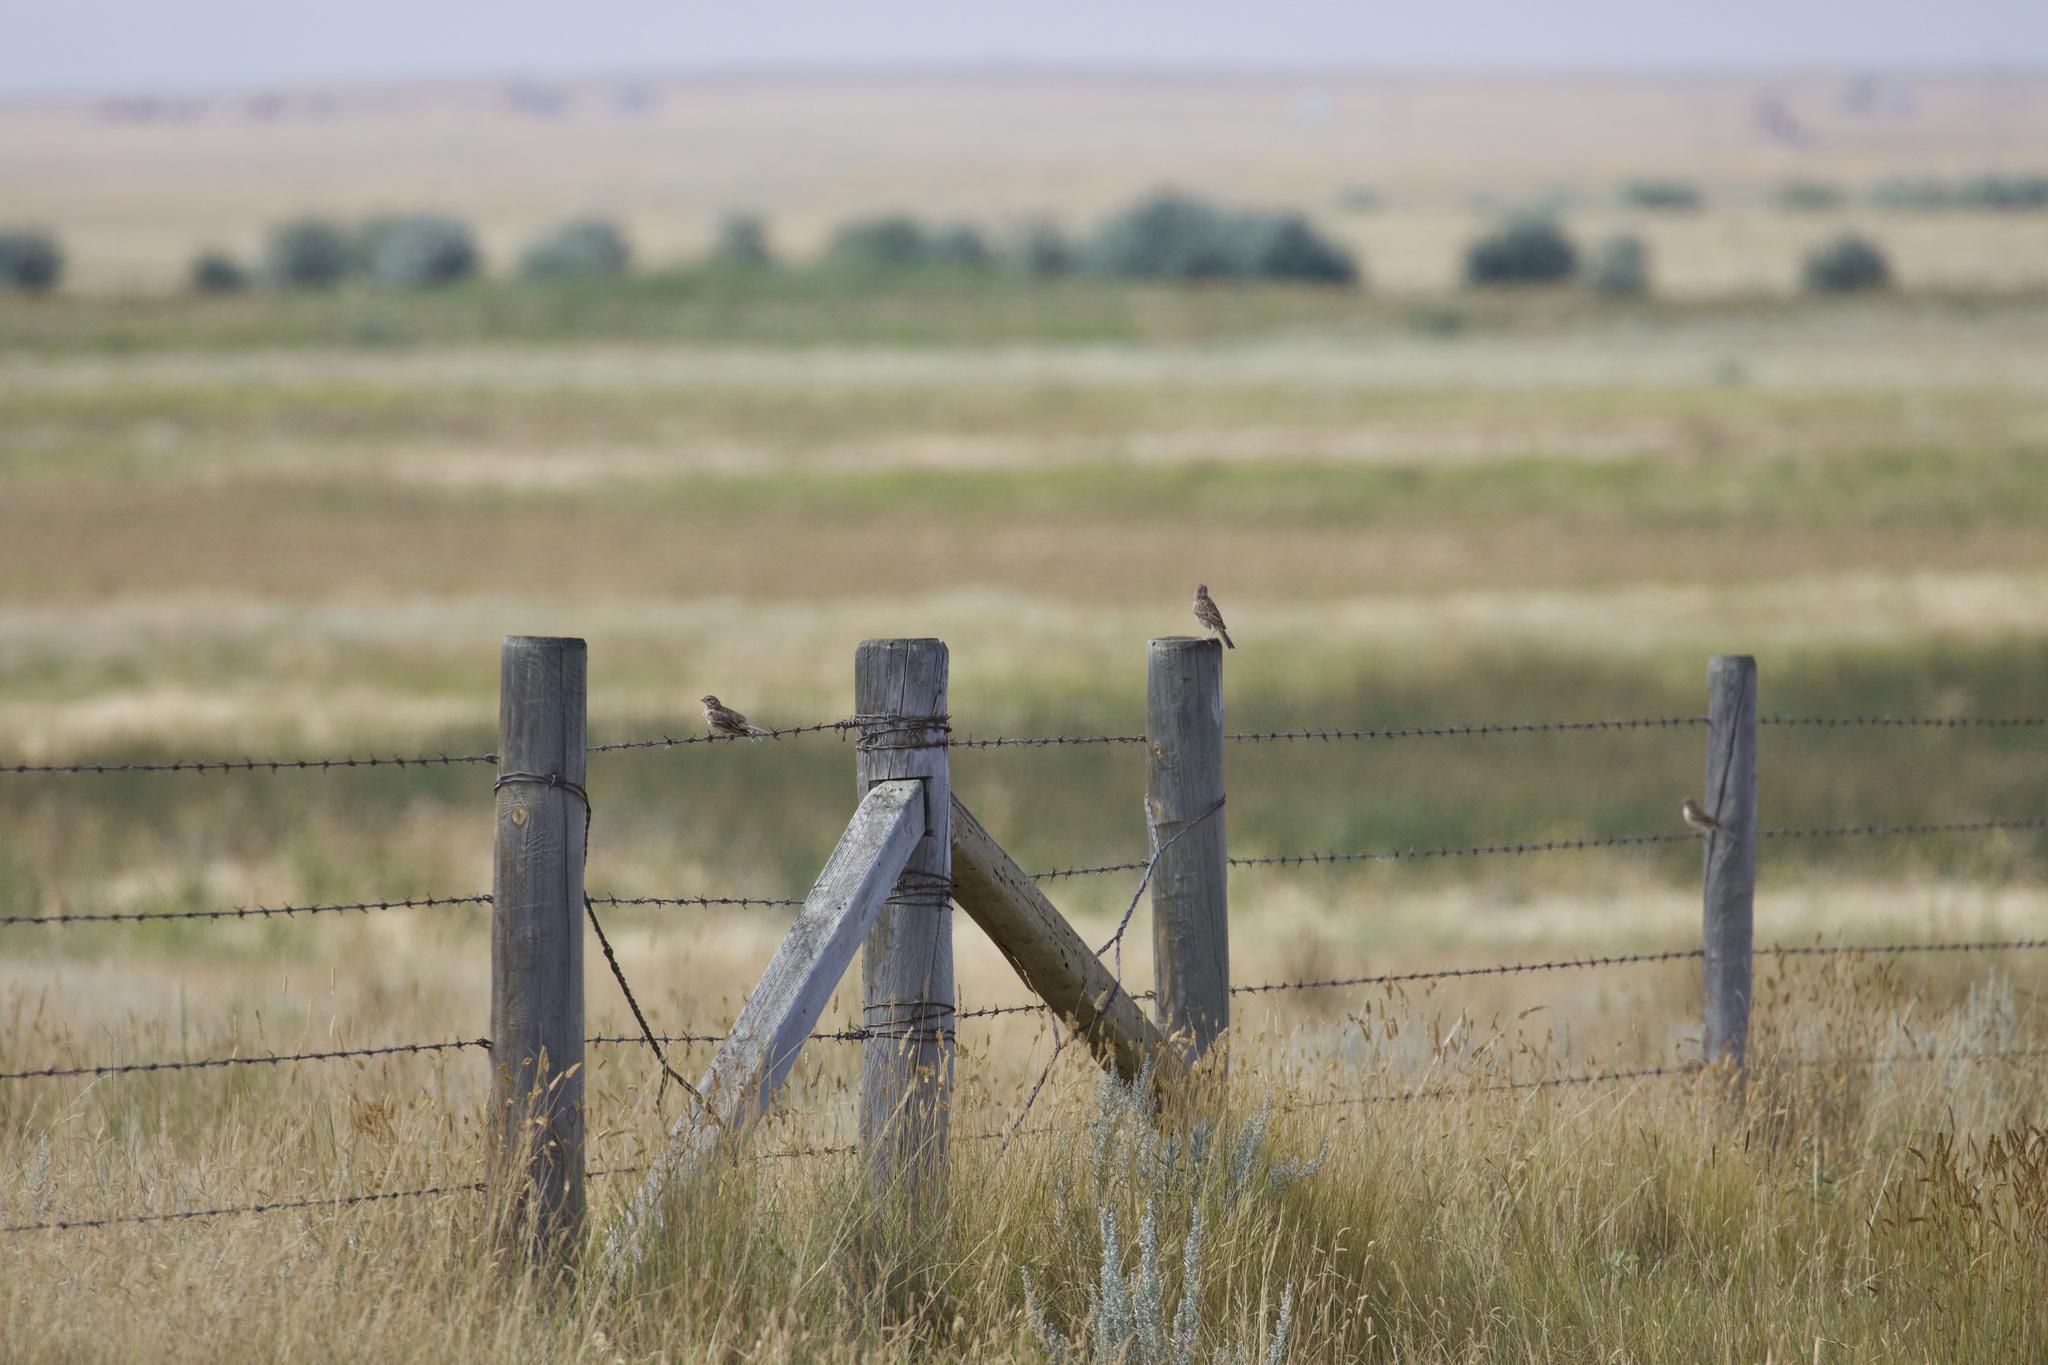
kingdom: Animalia
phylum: Chordata
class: Aves
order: Passeriformes
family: Passerellidae
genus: Pooecetes
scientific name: Pooecetes gramineus
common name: Vesper sparrow
